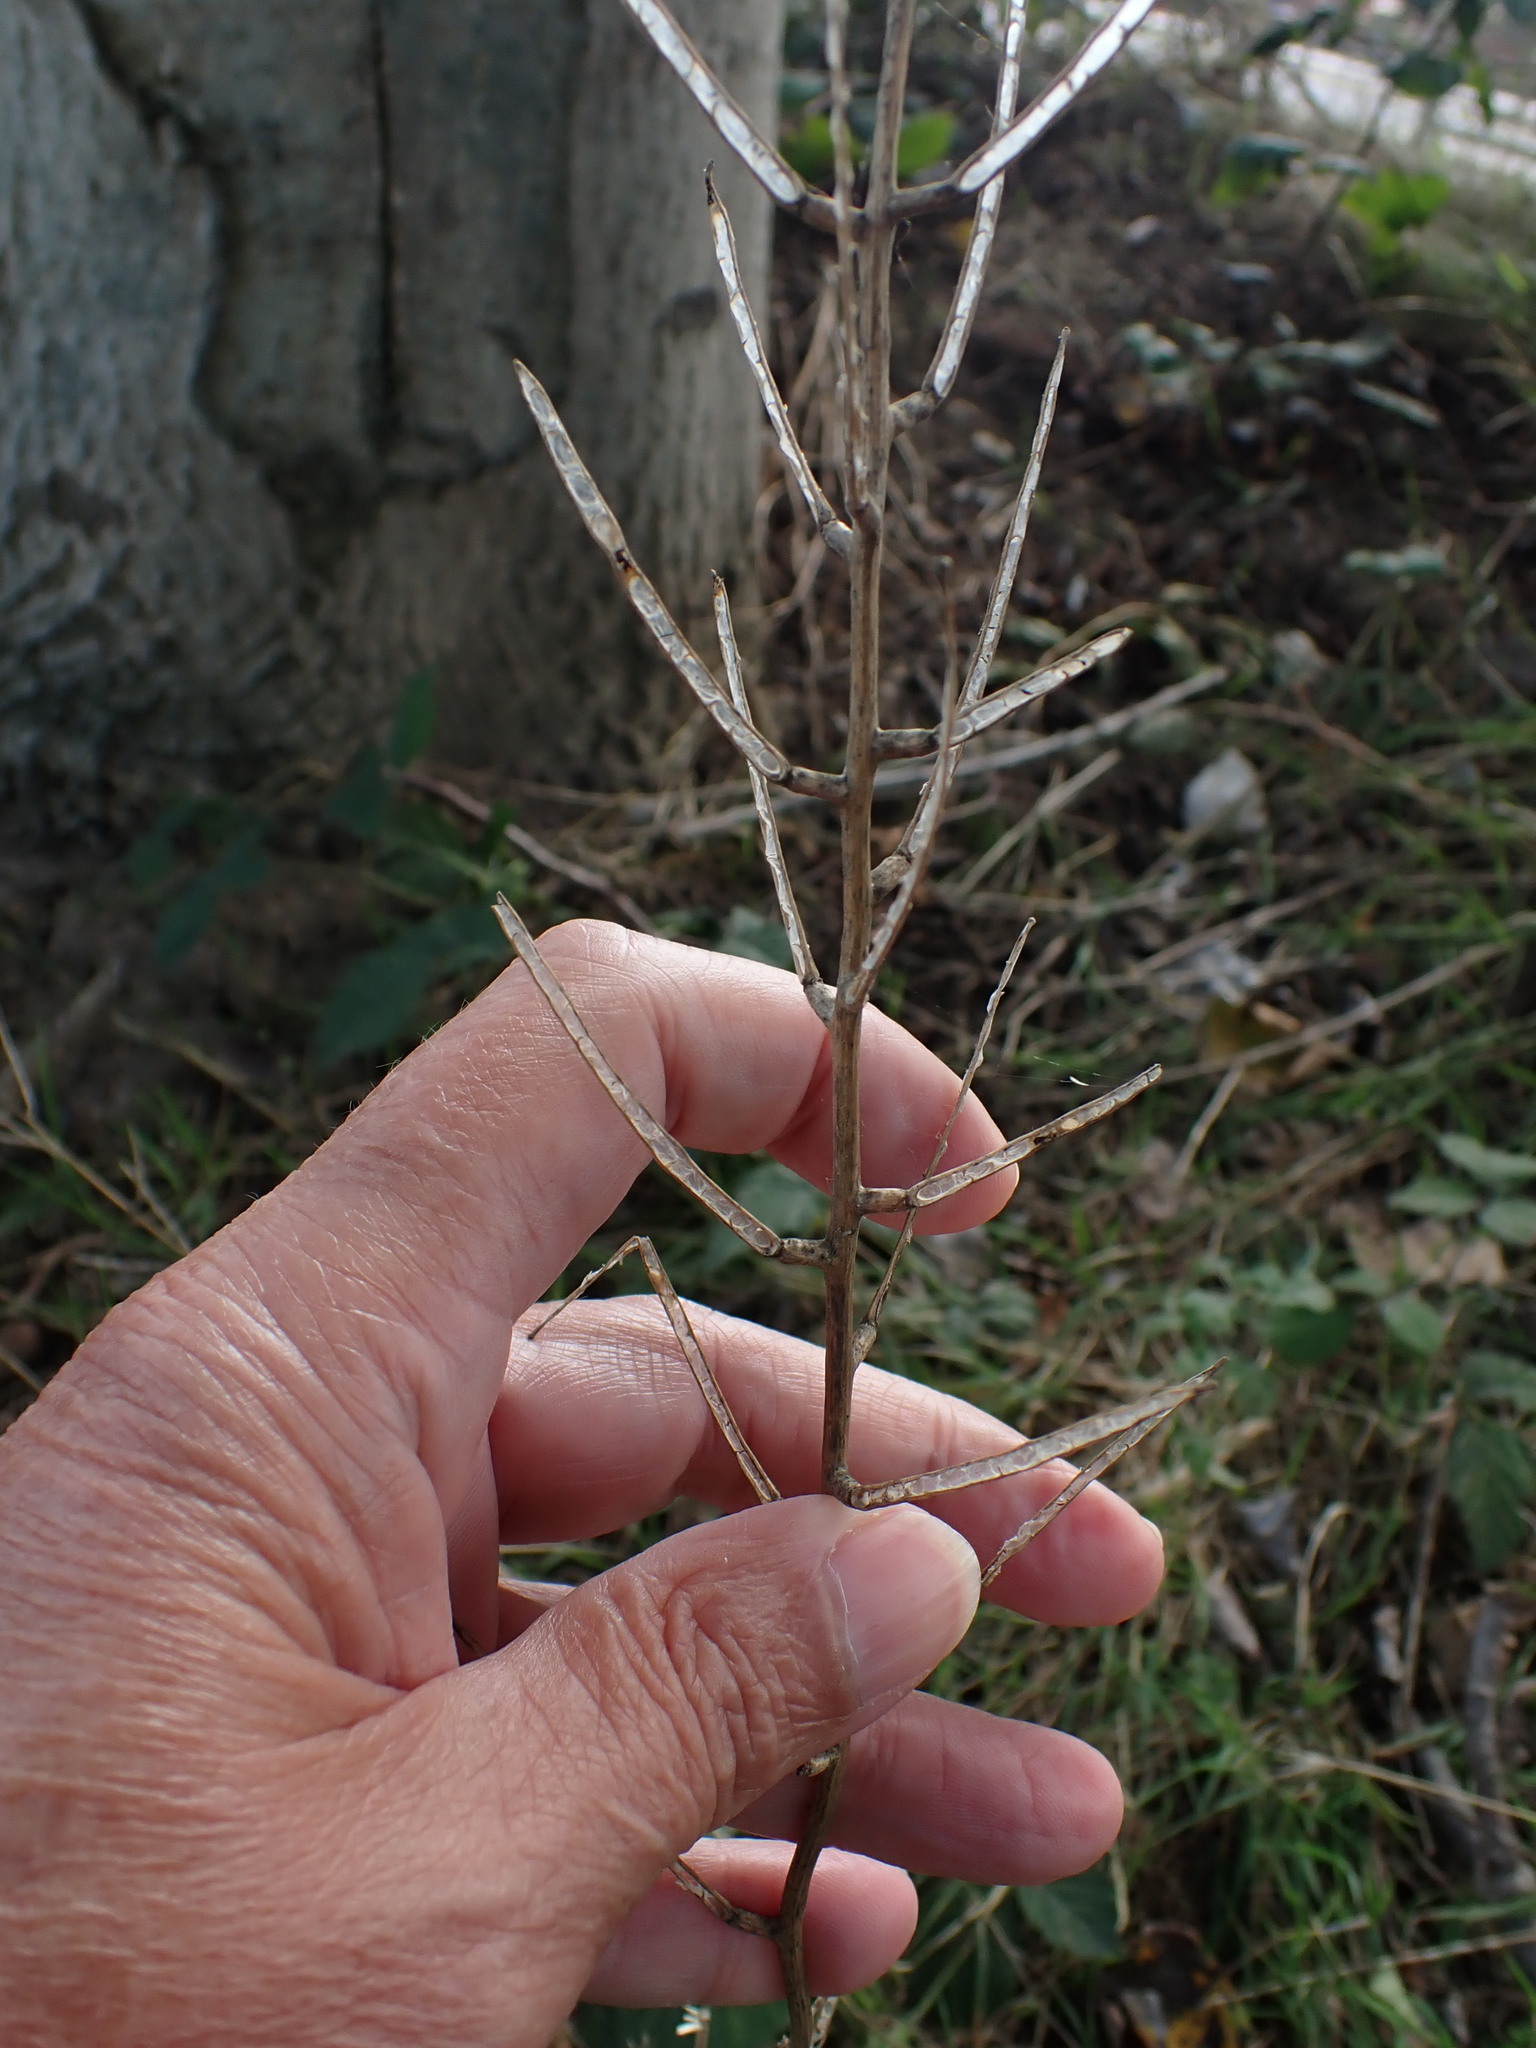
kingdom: Plantae
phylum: Tracheophyta
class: Magnoliopsida
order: Brassicales
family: Brassicaceae
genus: Alliaria
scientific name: Alliaria petiolata
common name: Garlic mustard
